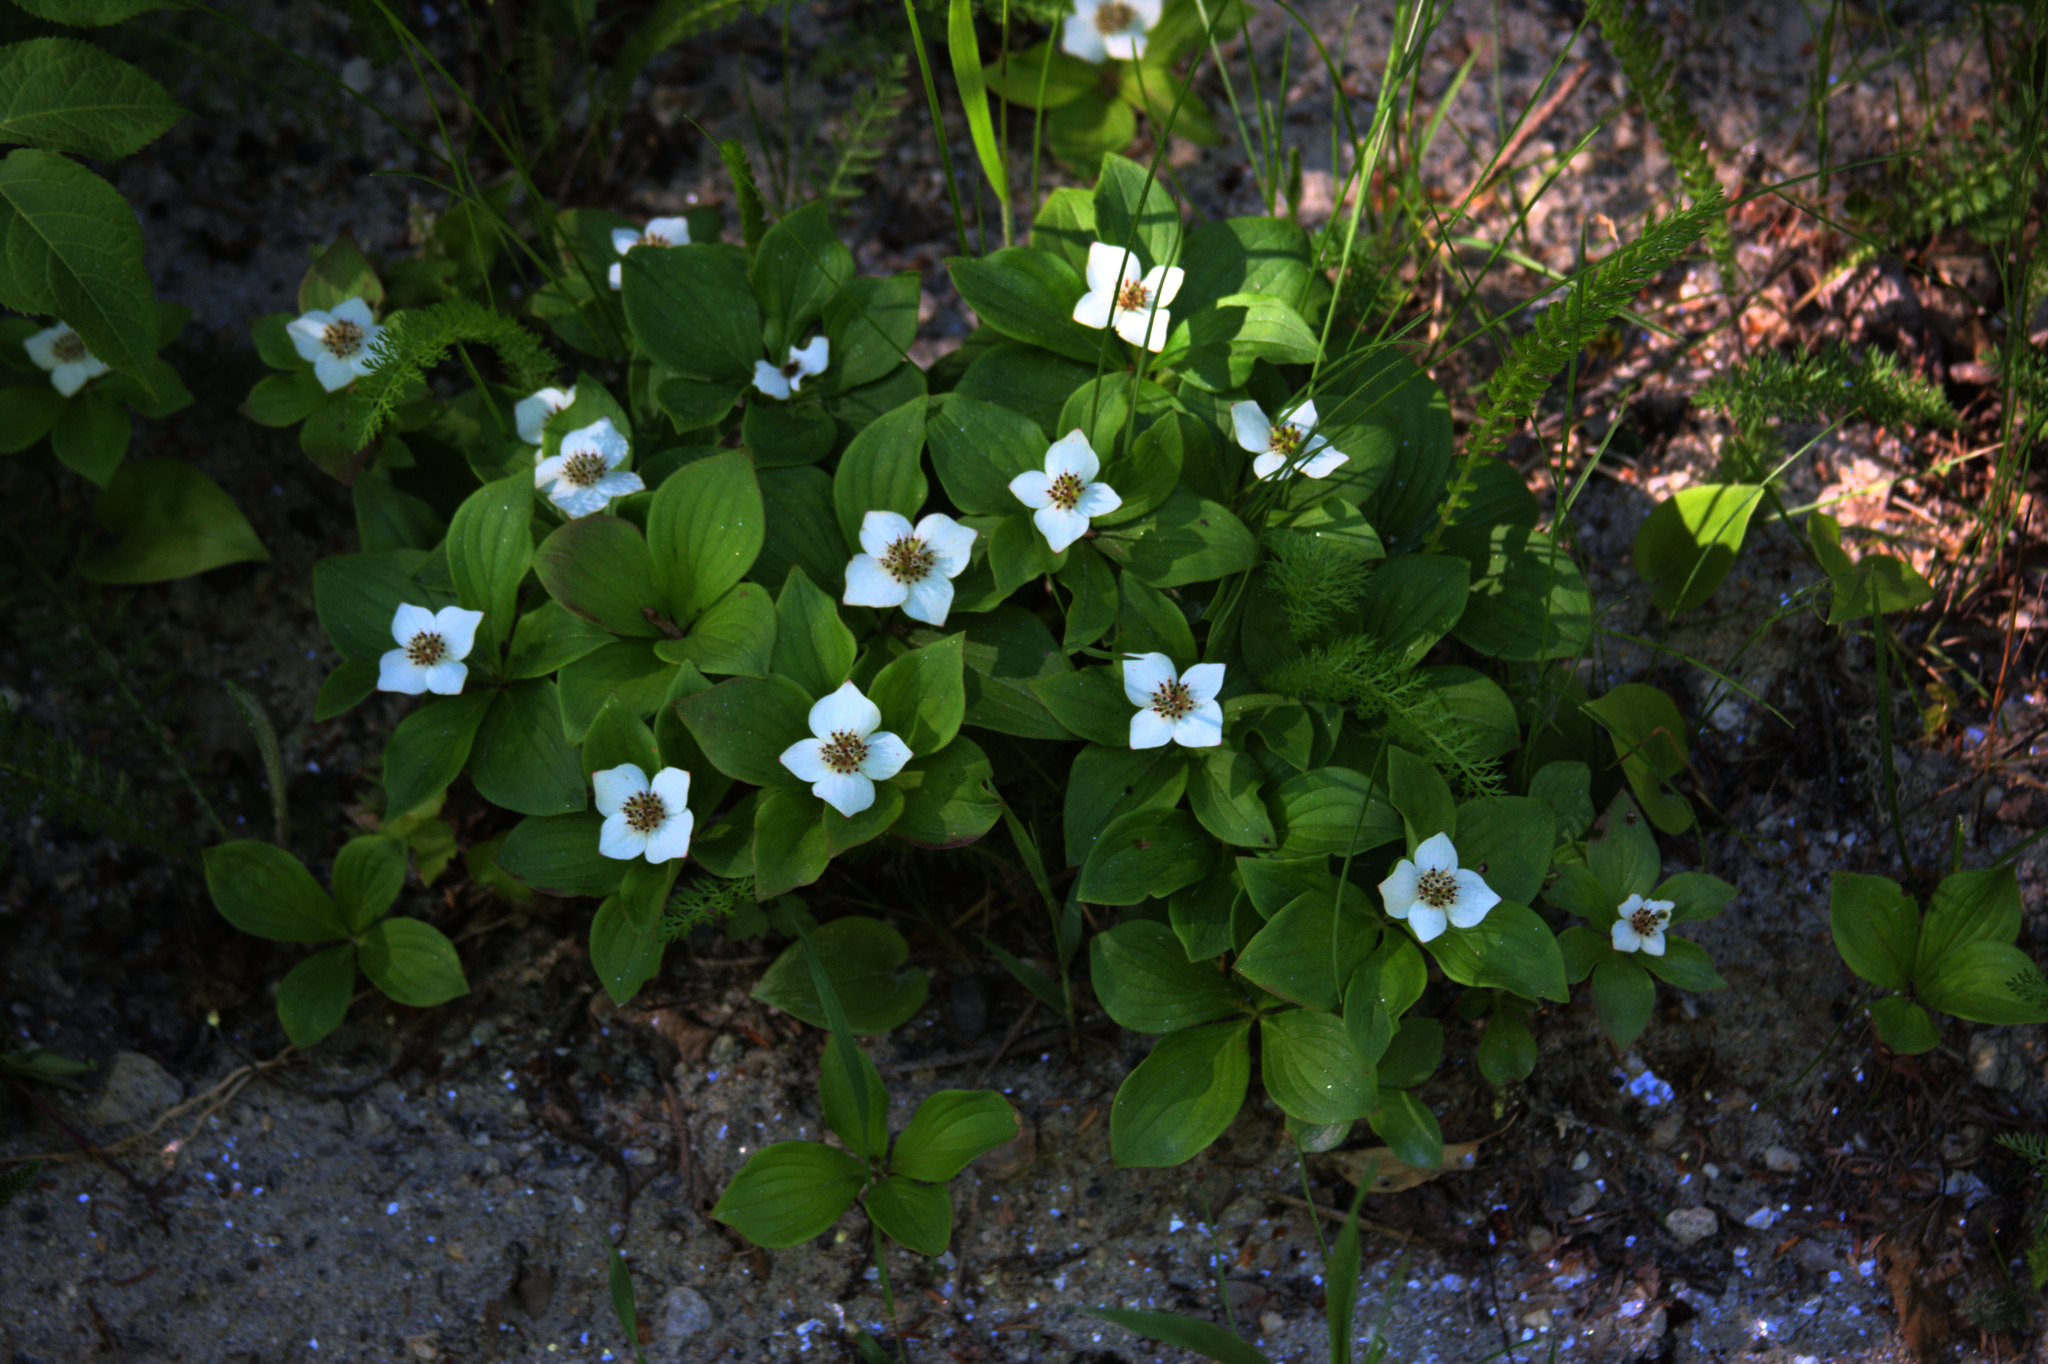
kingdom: Plantae
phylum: Tracheophyta
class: Magnoliopsida
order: Cornales
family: Cornaceae
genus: Cornus
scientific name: Cornus canadensis
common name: Creeping dogwood
